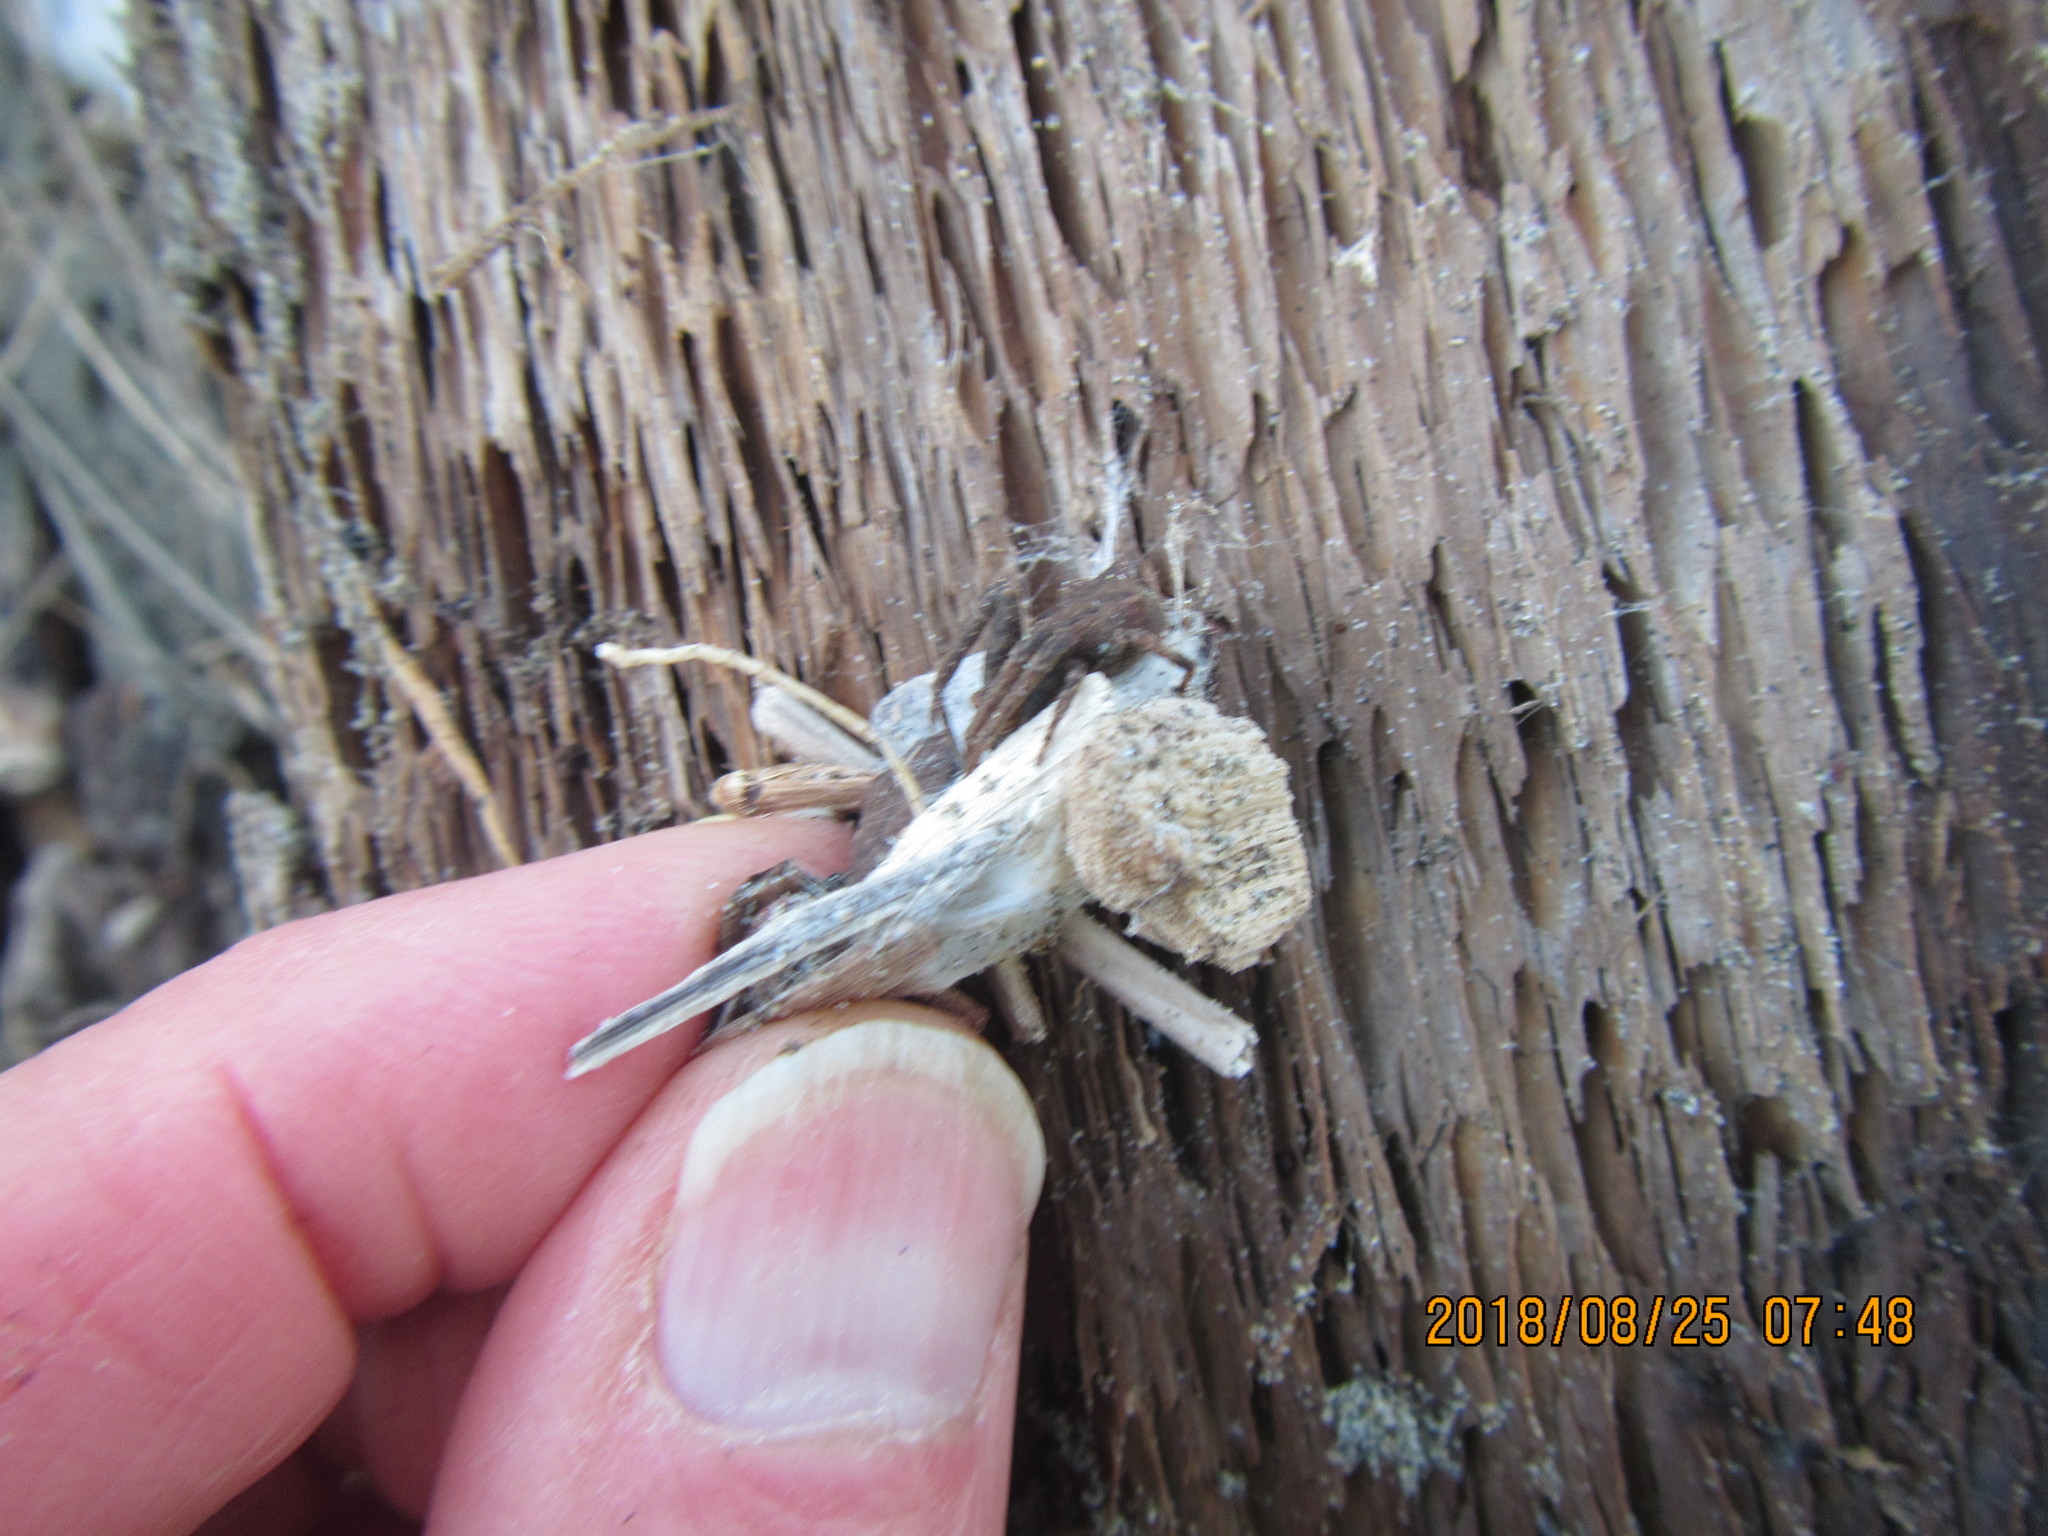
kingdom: Animalia
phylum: Arthropoda
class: Arachnida
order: Araneae
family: Thomisidae
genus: Sidymella
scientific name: Sidymella trapezia
